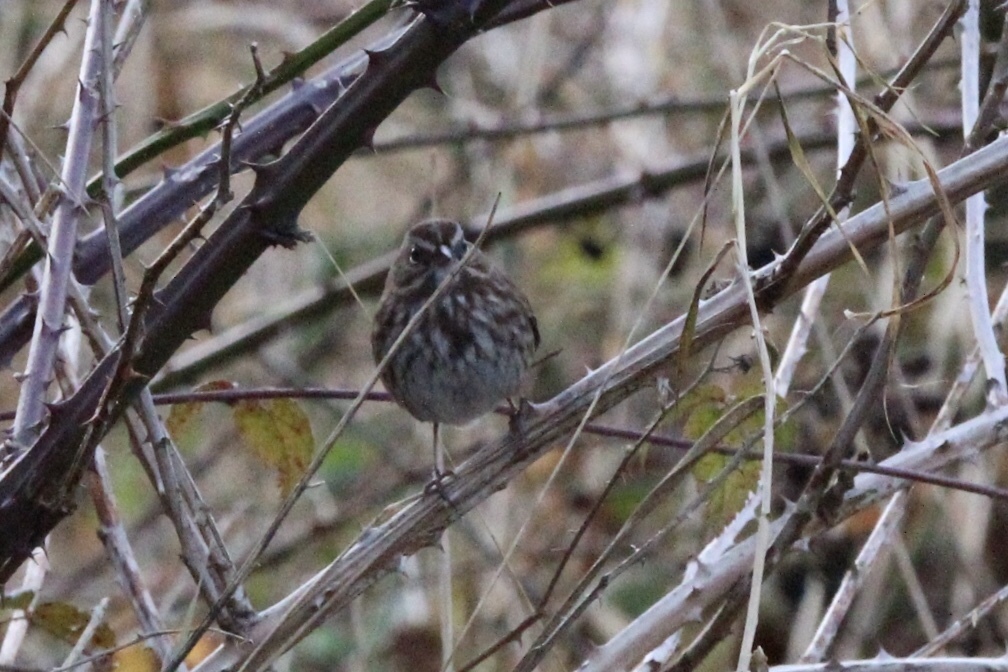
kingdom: Animalia
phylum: Chordata
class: Aves
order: Passeriformes
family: Passerellidae
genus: Melospiza
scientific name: Melospiza melodia
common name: Song sparrow
